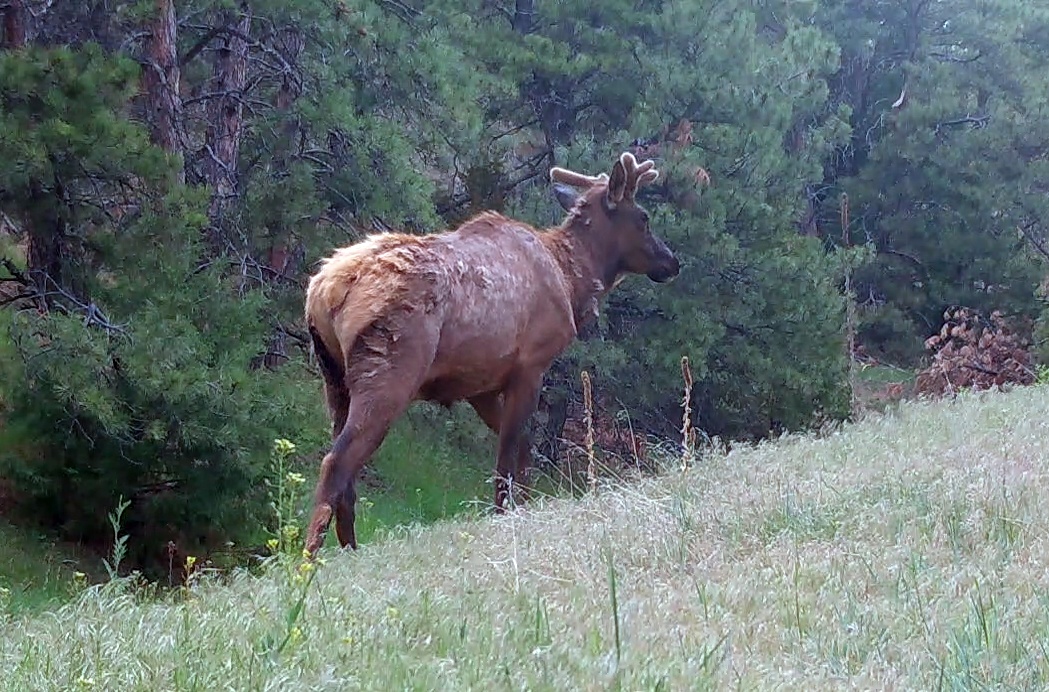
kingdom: Animalia
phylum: Chordata
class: Mammalia
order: Artiodactyla
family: Cervidae
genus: Cervus
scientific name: Cervus elaphus
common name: Red deer
